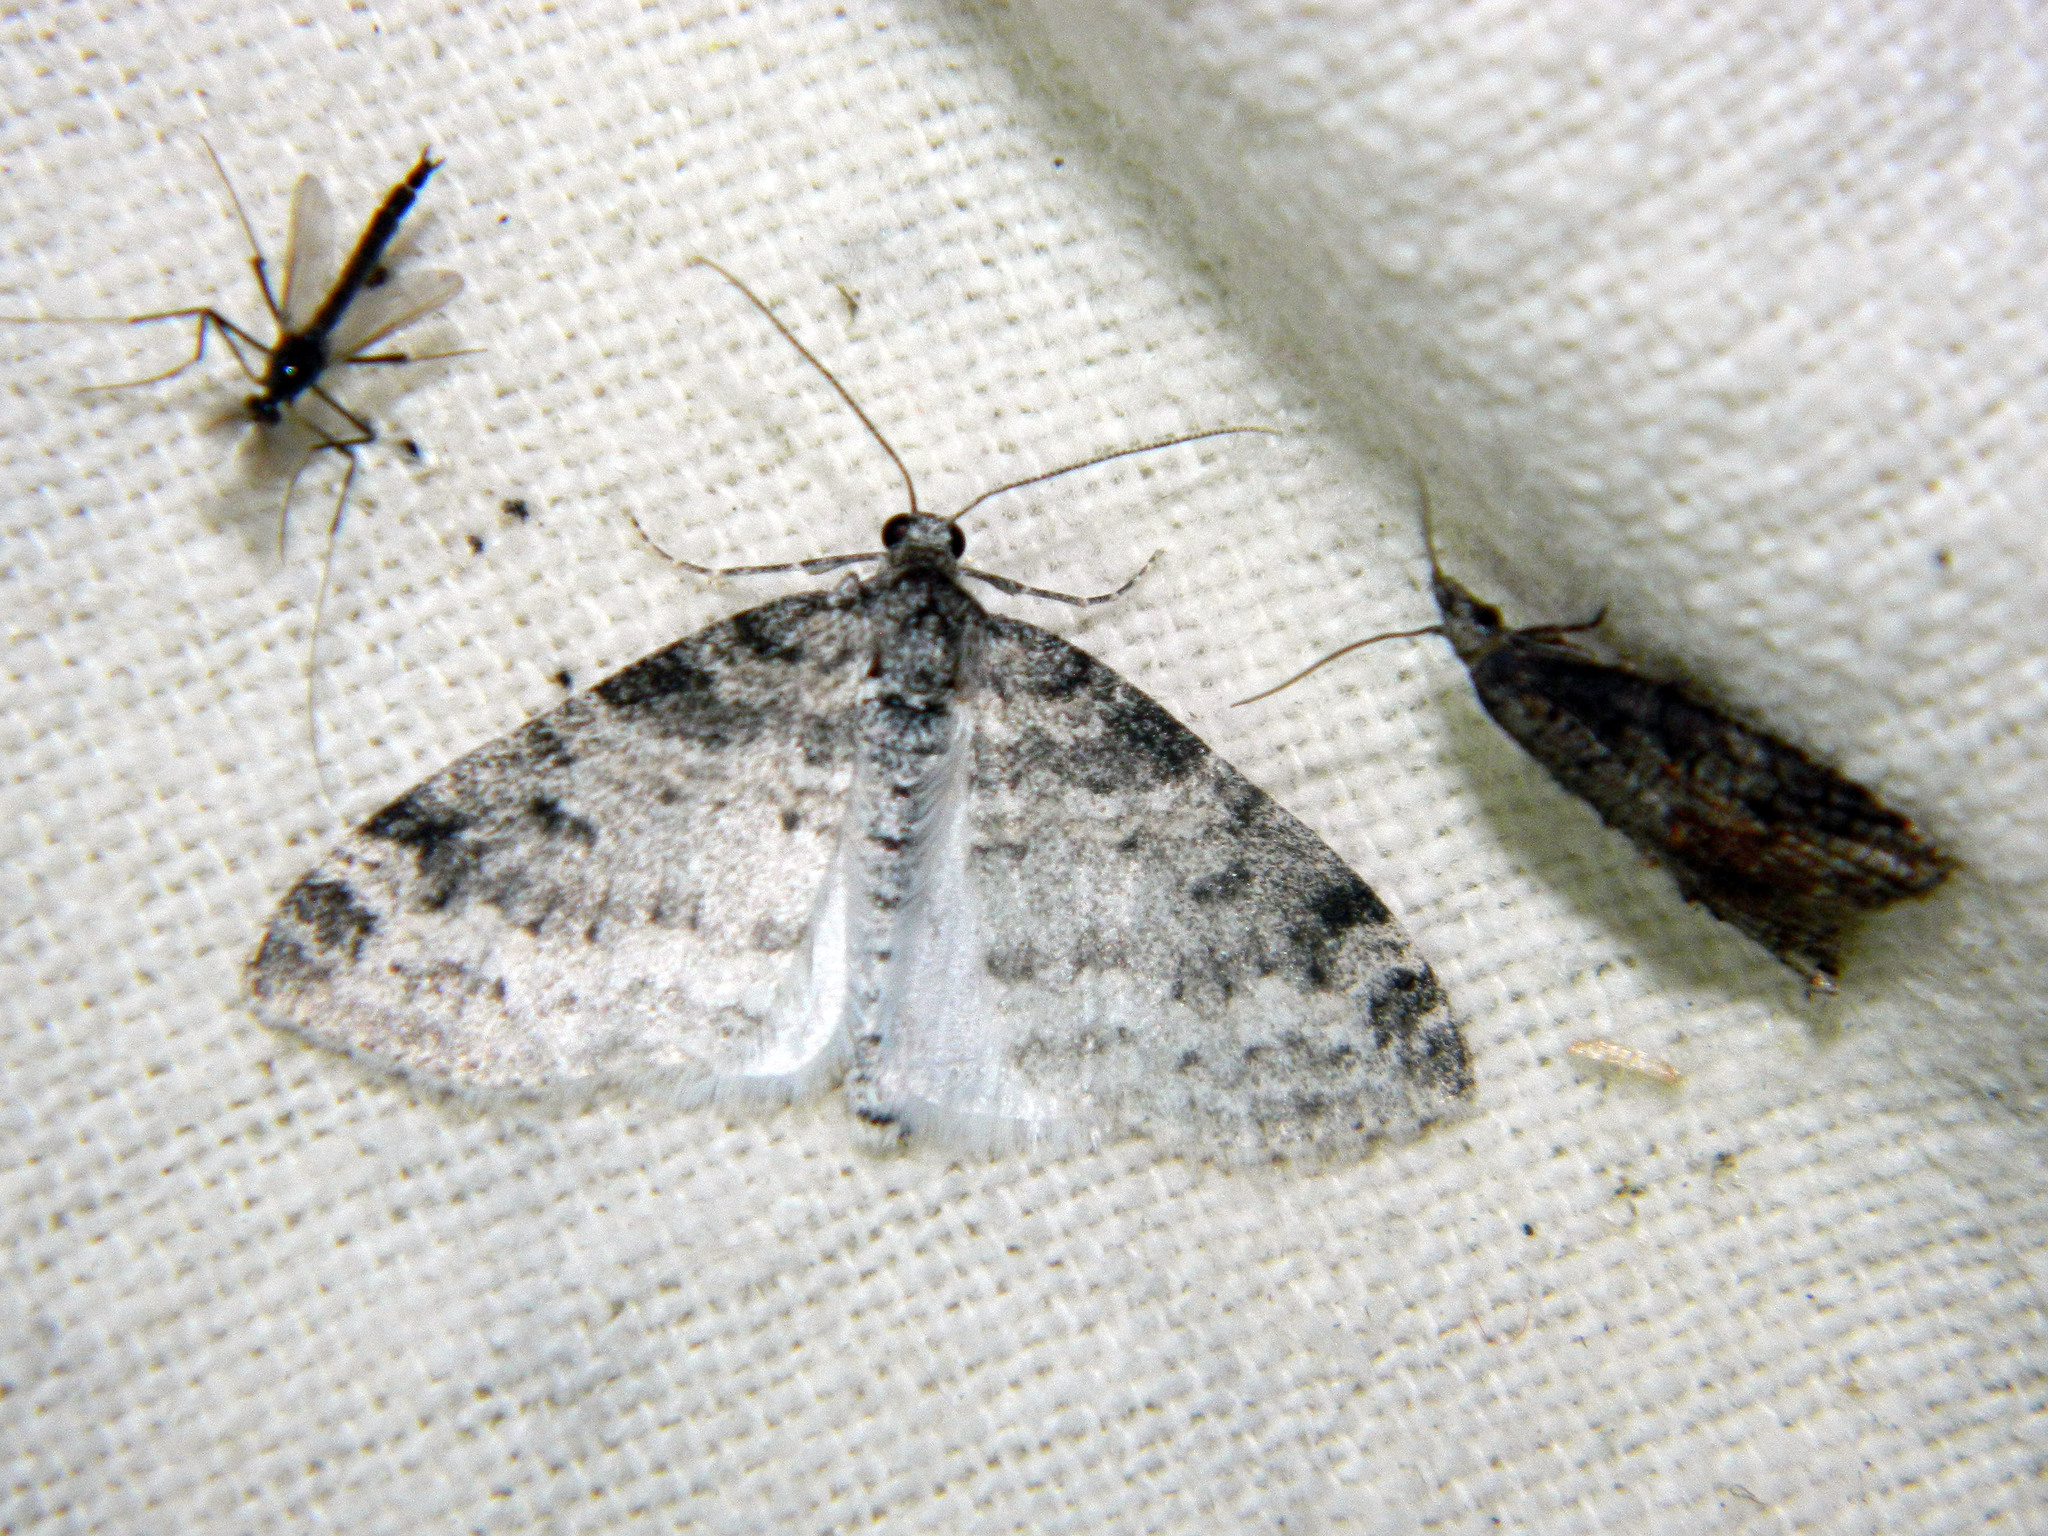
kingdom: Animalia
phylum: Arthropoda
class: Insecta
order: Lepidoptera
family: Geometridae
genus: Lobophora
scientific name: Lobophora nivigerata
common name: Powdered bigwing
